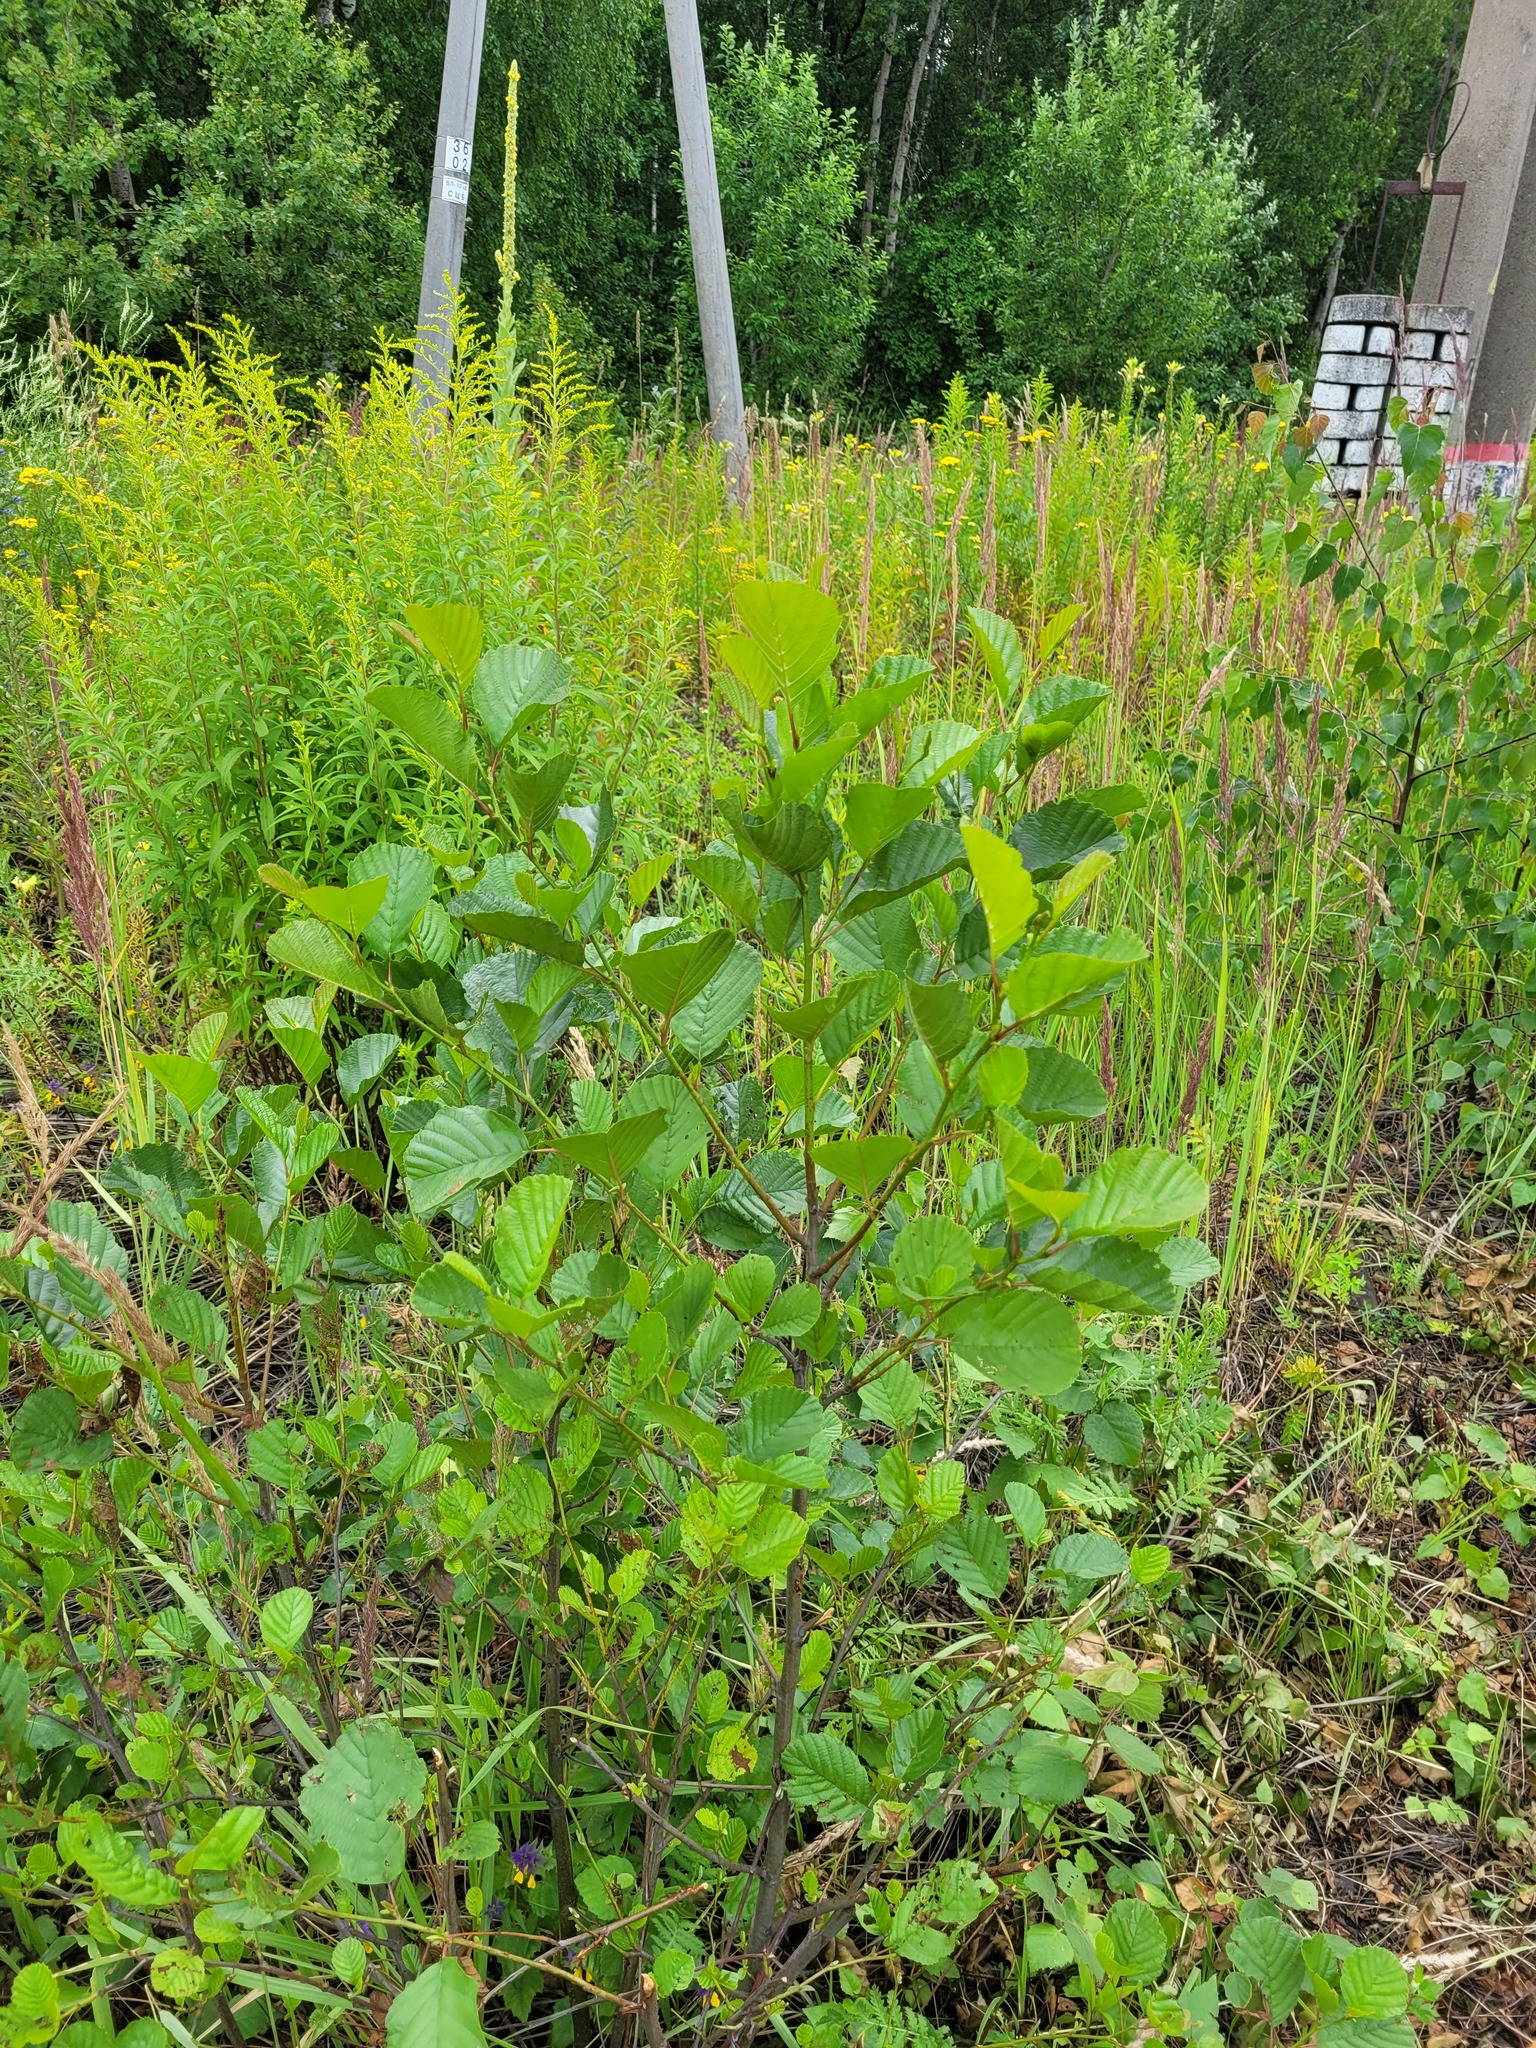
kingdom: Plantae
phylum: Tracheophyta
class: Magnoliopsida
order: Fagales
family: Betulaceae
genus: Alnus
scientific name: Alnus glutinosa
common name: Black alder
